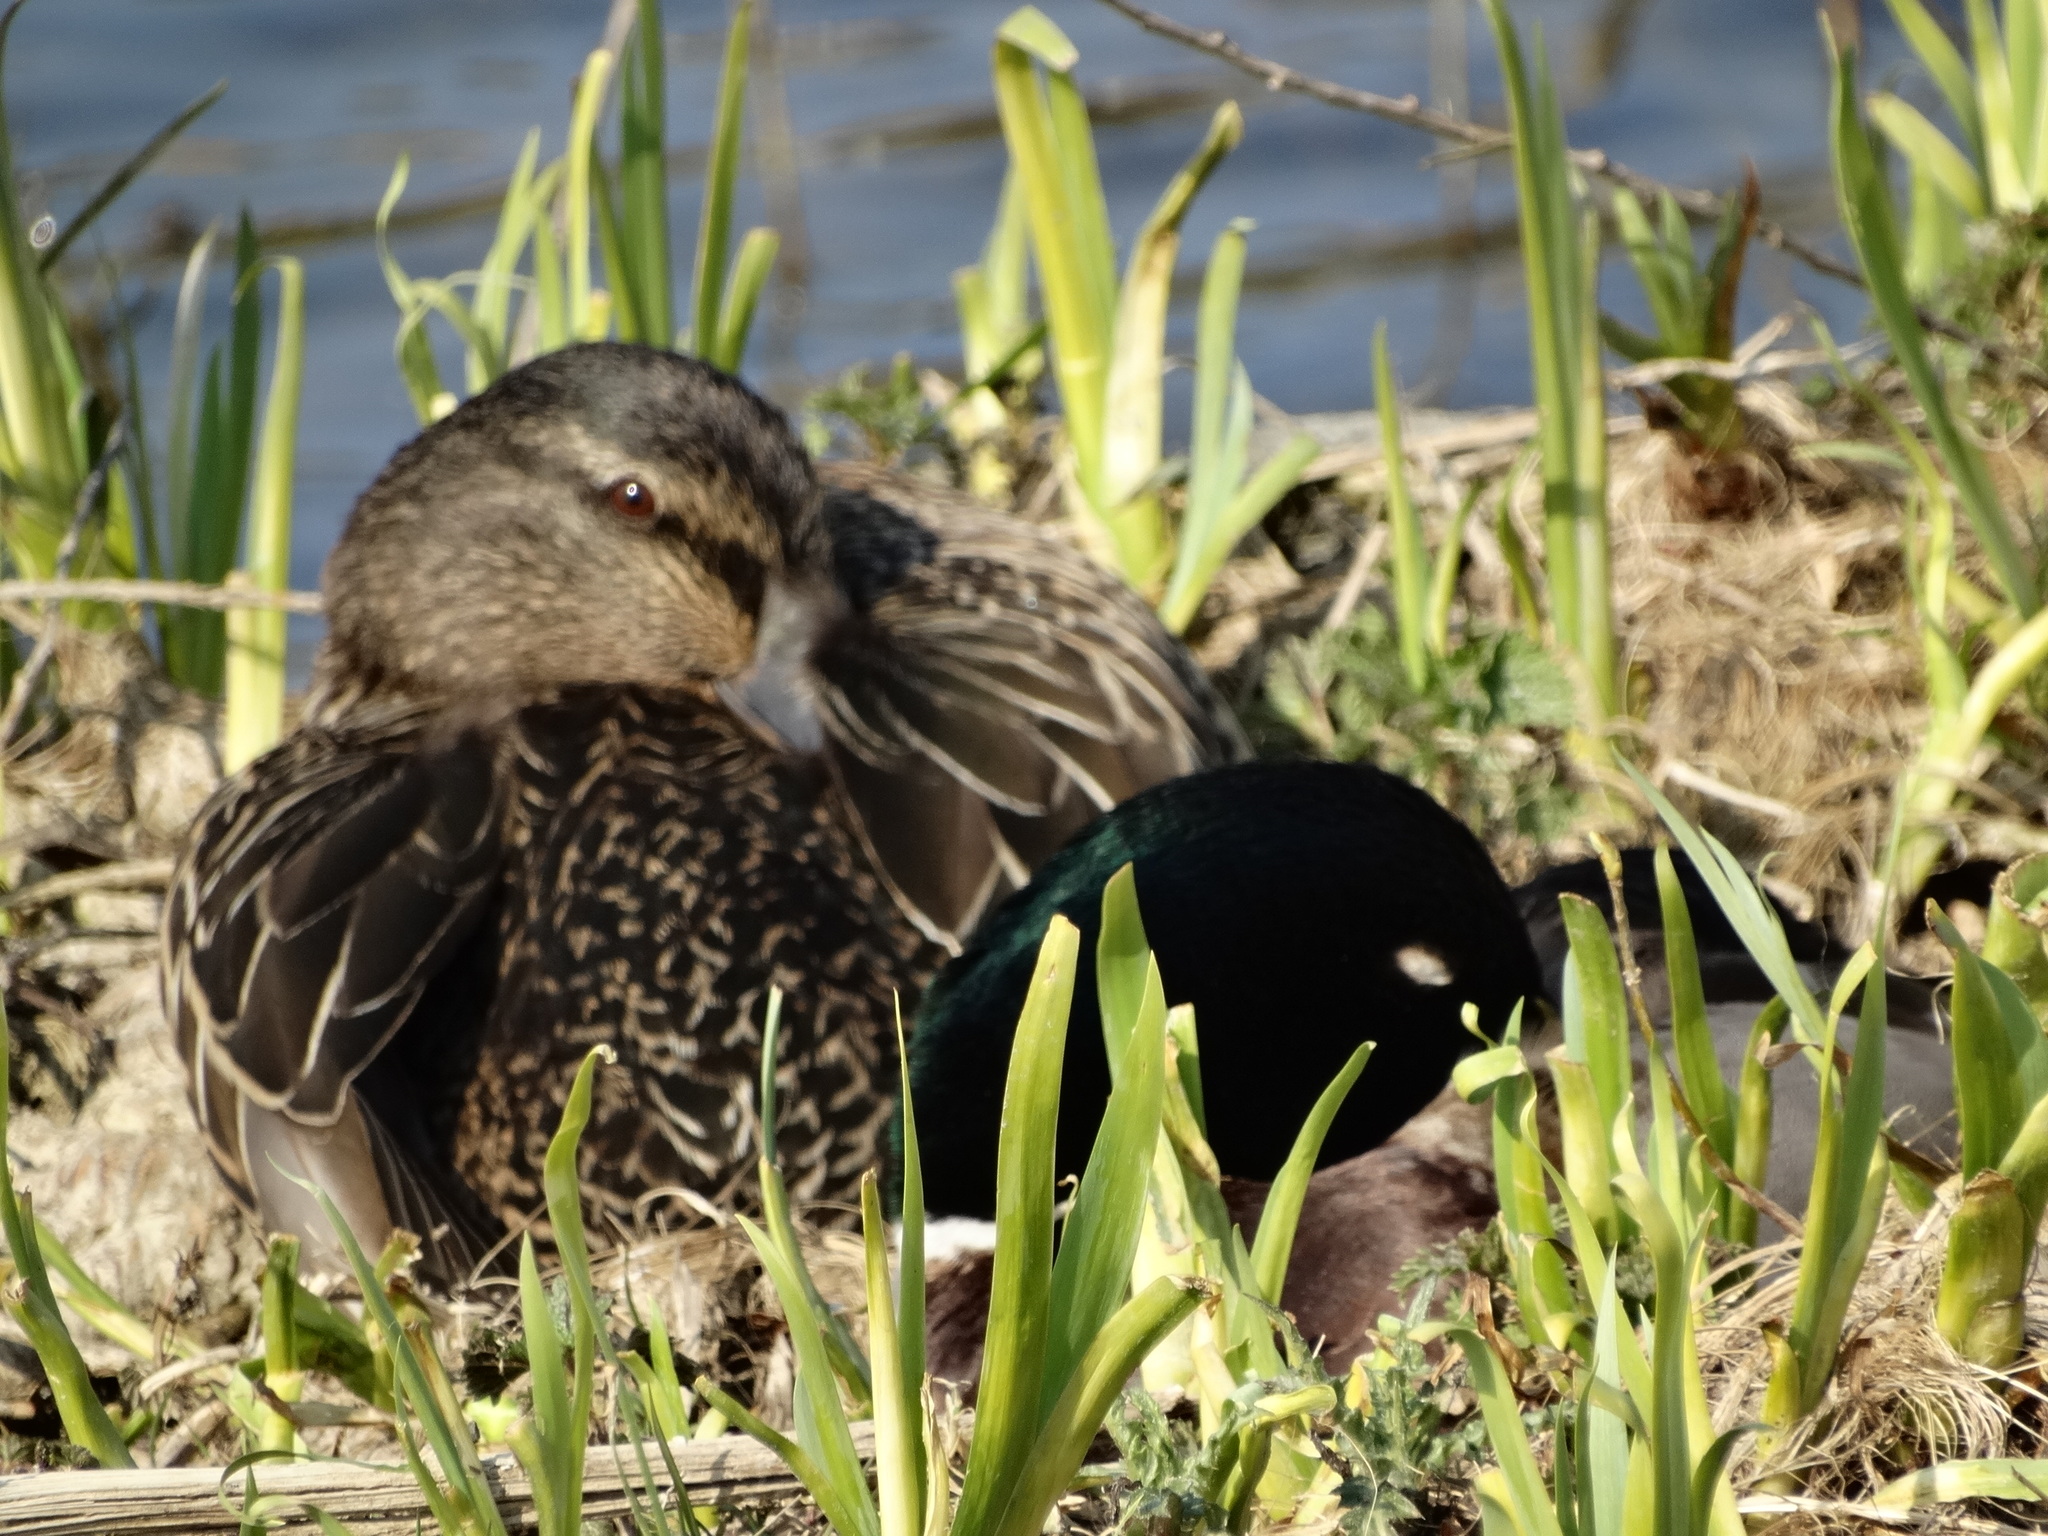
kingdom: Animalia
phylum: Chordata
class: Aves
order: Anseriformes
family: Anatidae
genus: Anas
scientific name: Anas platyrhynchos
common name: Mallard
